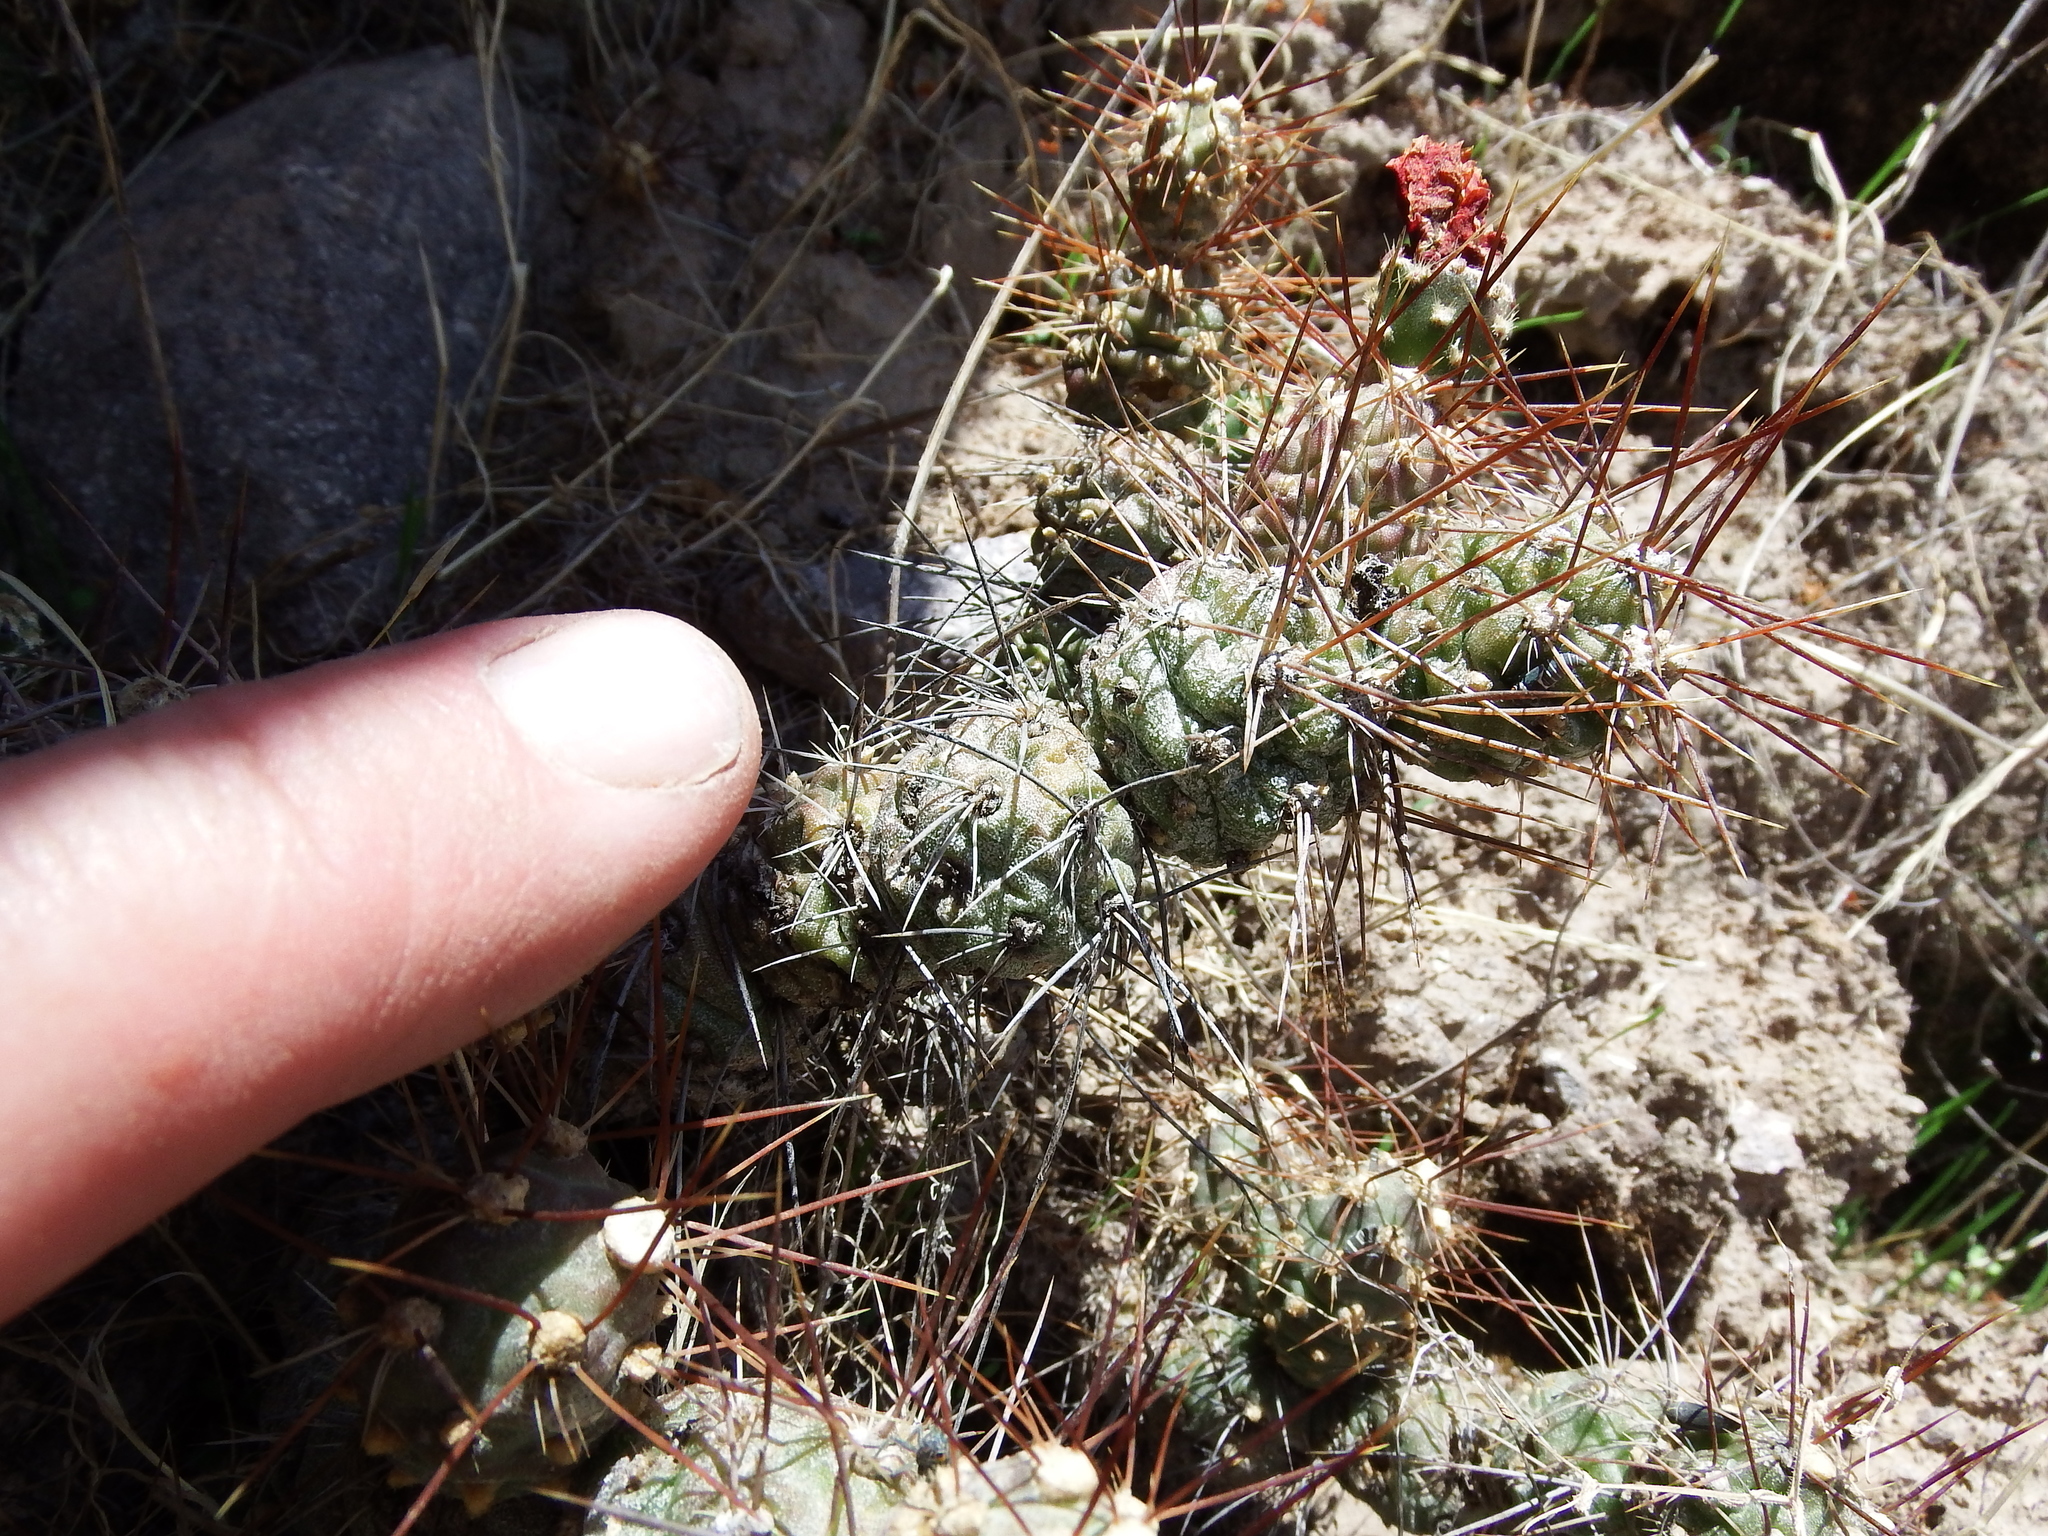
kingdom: Plantae
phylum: Tracheophyta
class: Magnoliopsida
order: Caryophyllales
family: Cactaceae
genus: Cumulopuntia
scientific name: Cumulopuntia leucophaea
